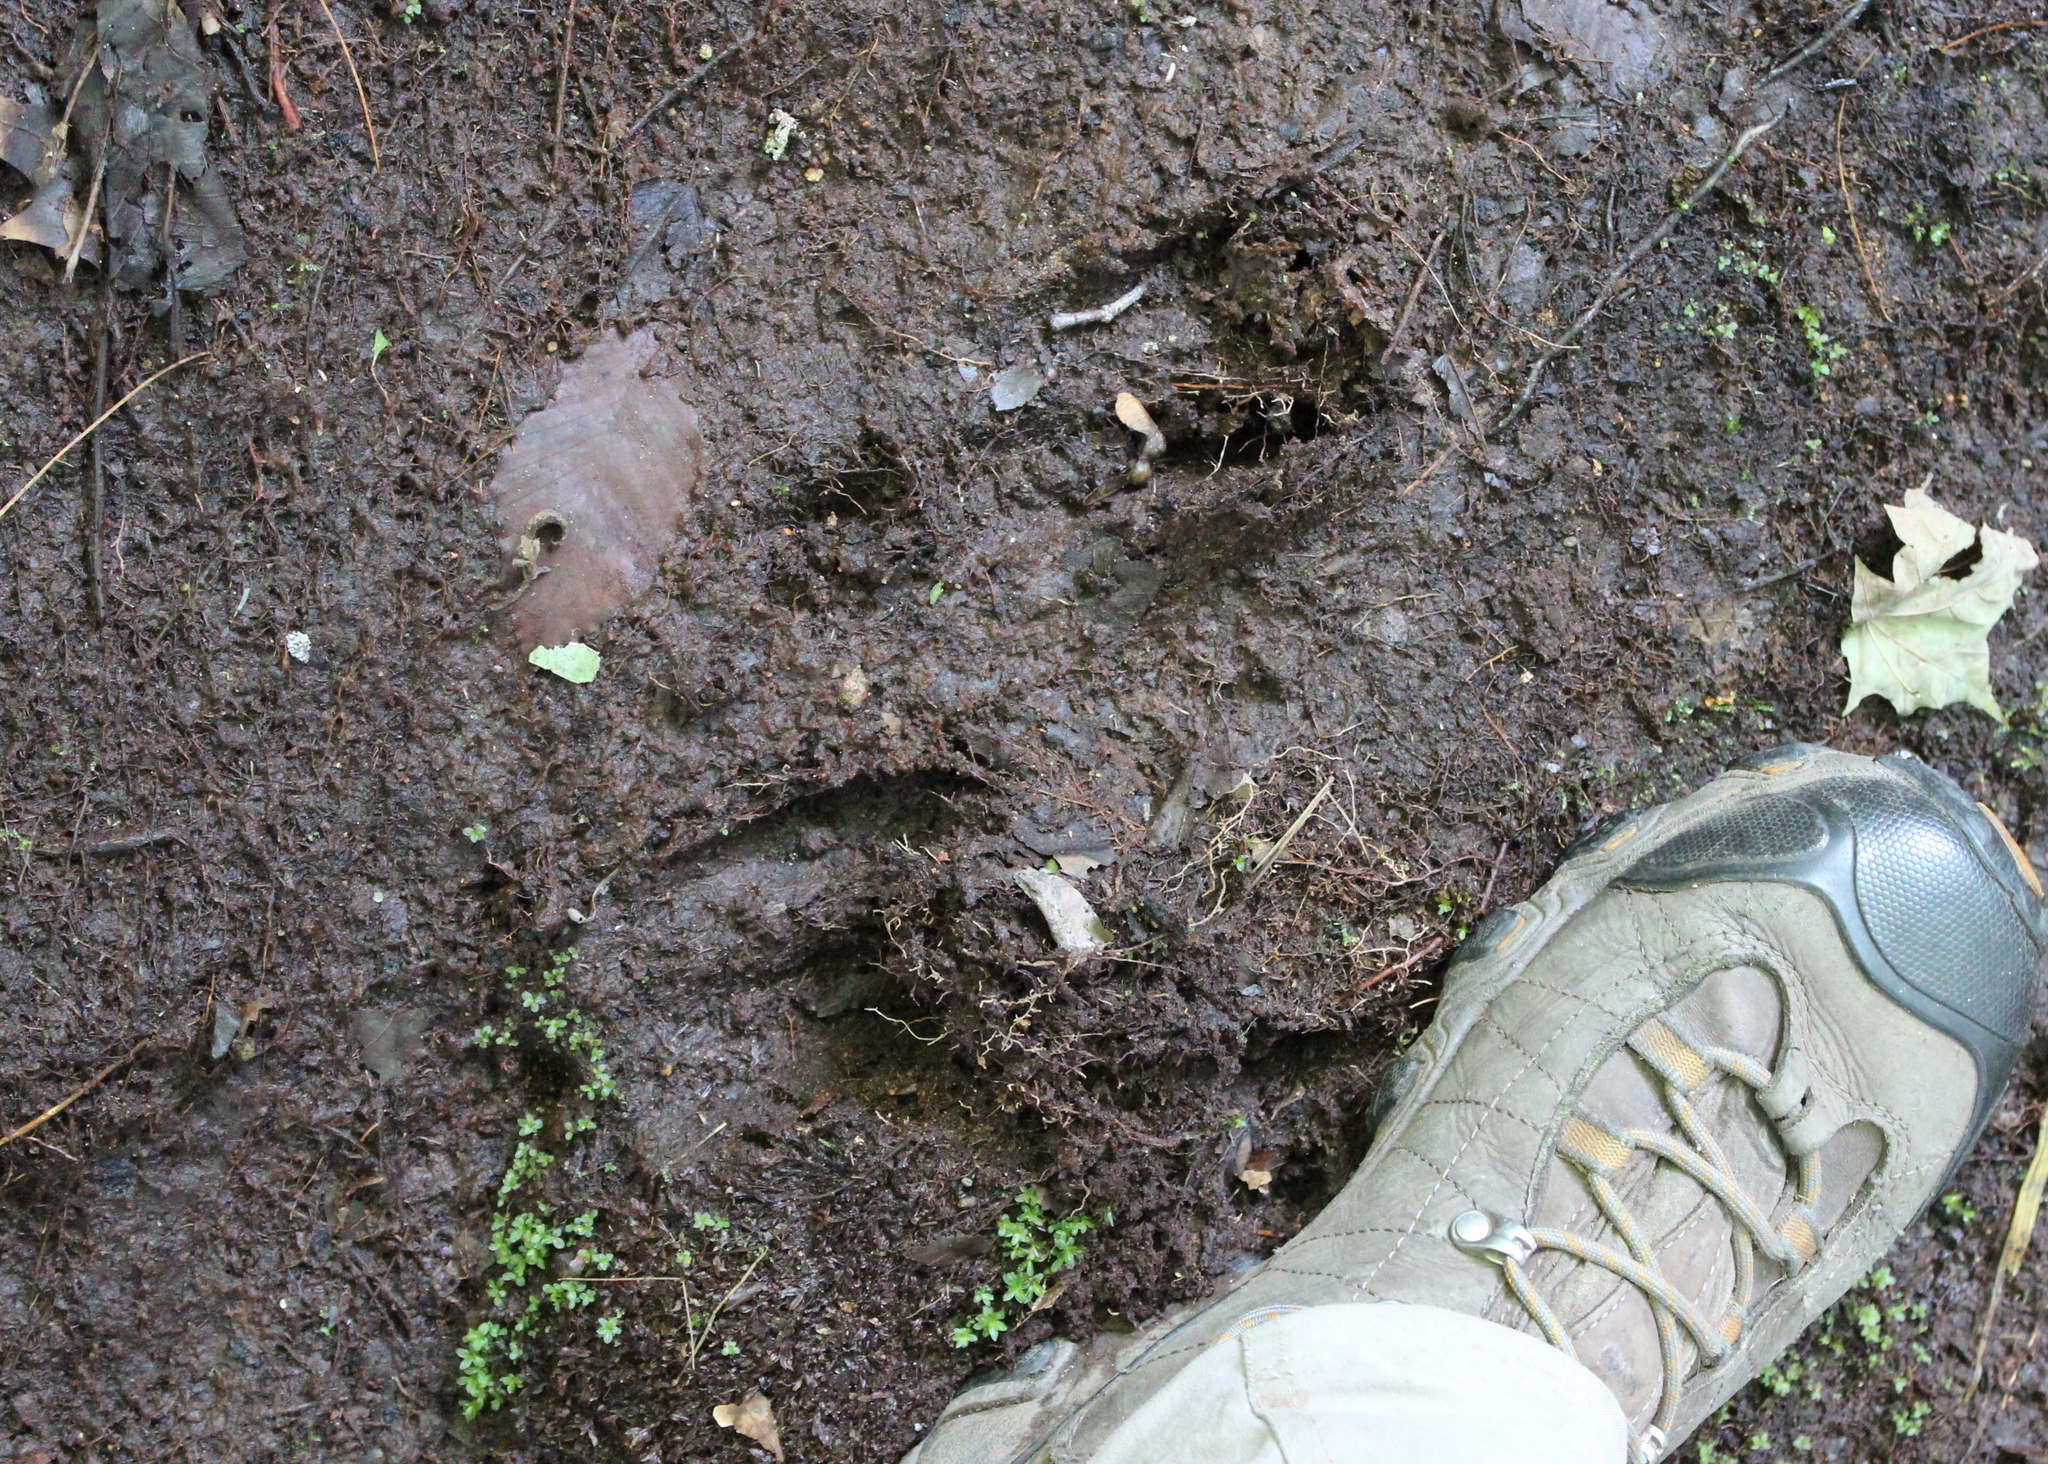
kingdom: Animalia
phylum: Chordata
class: Mammalia
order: Artiodactyla
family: Cervidae
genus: Odocoileus
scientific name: Odocoileus virginianus
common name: White-tailed deer
